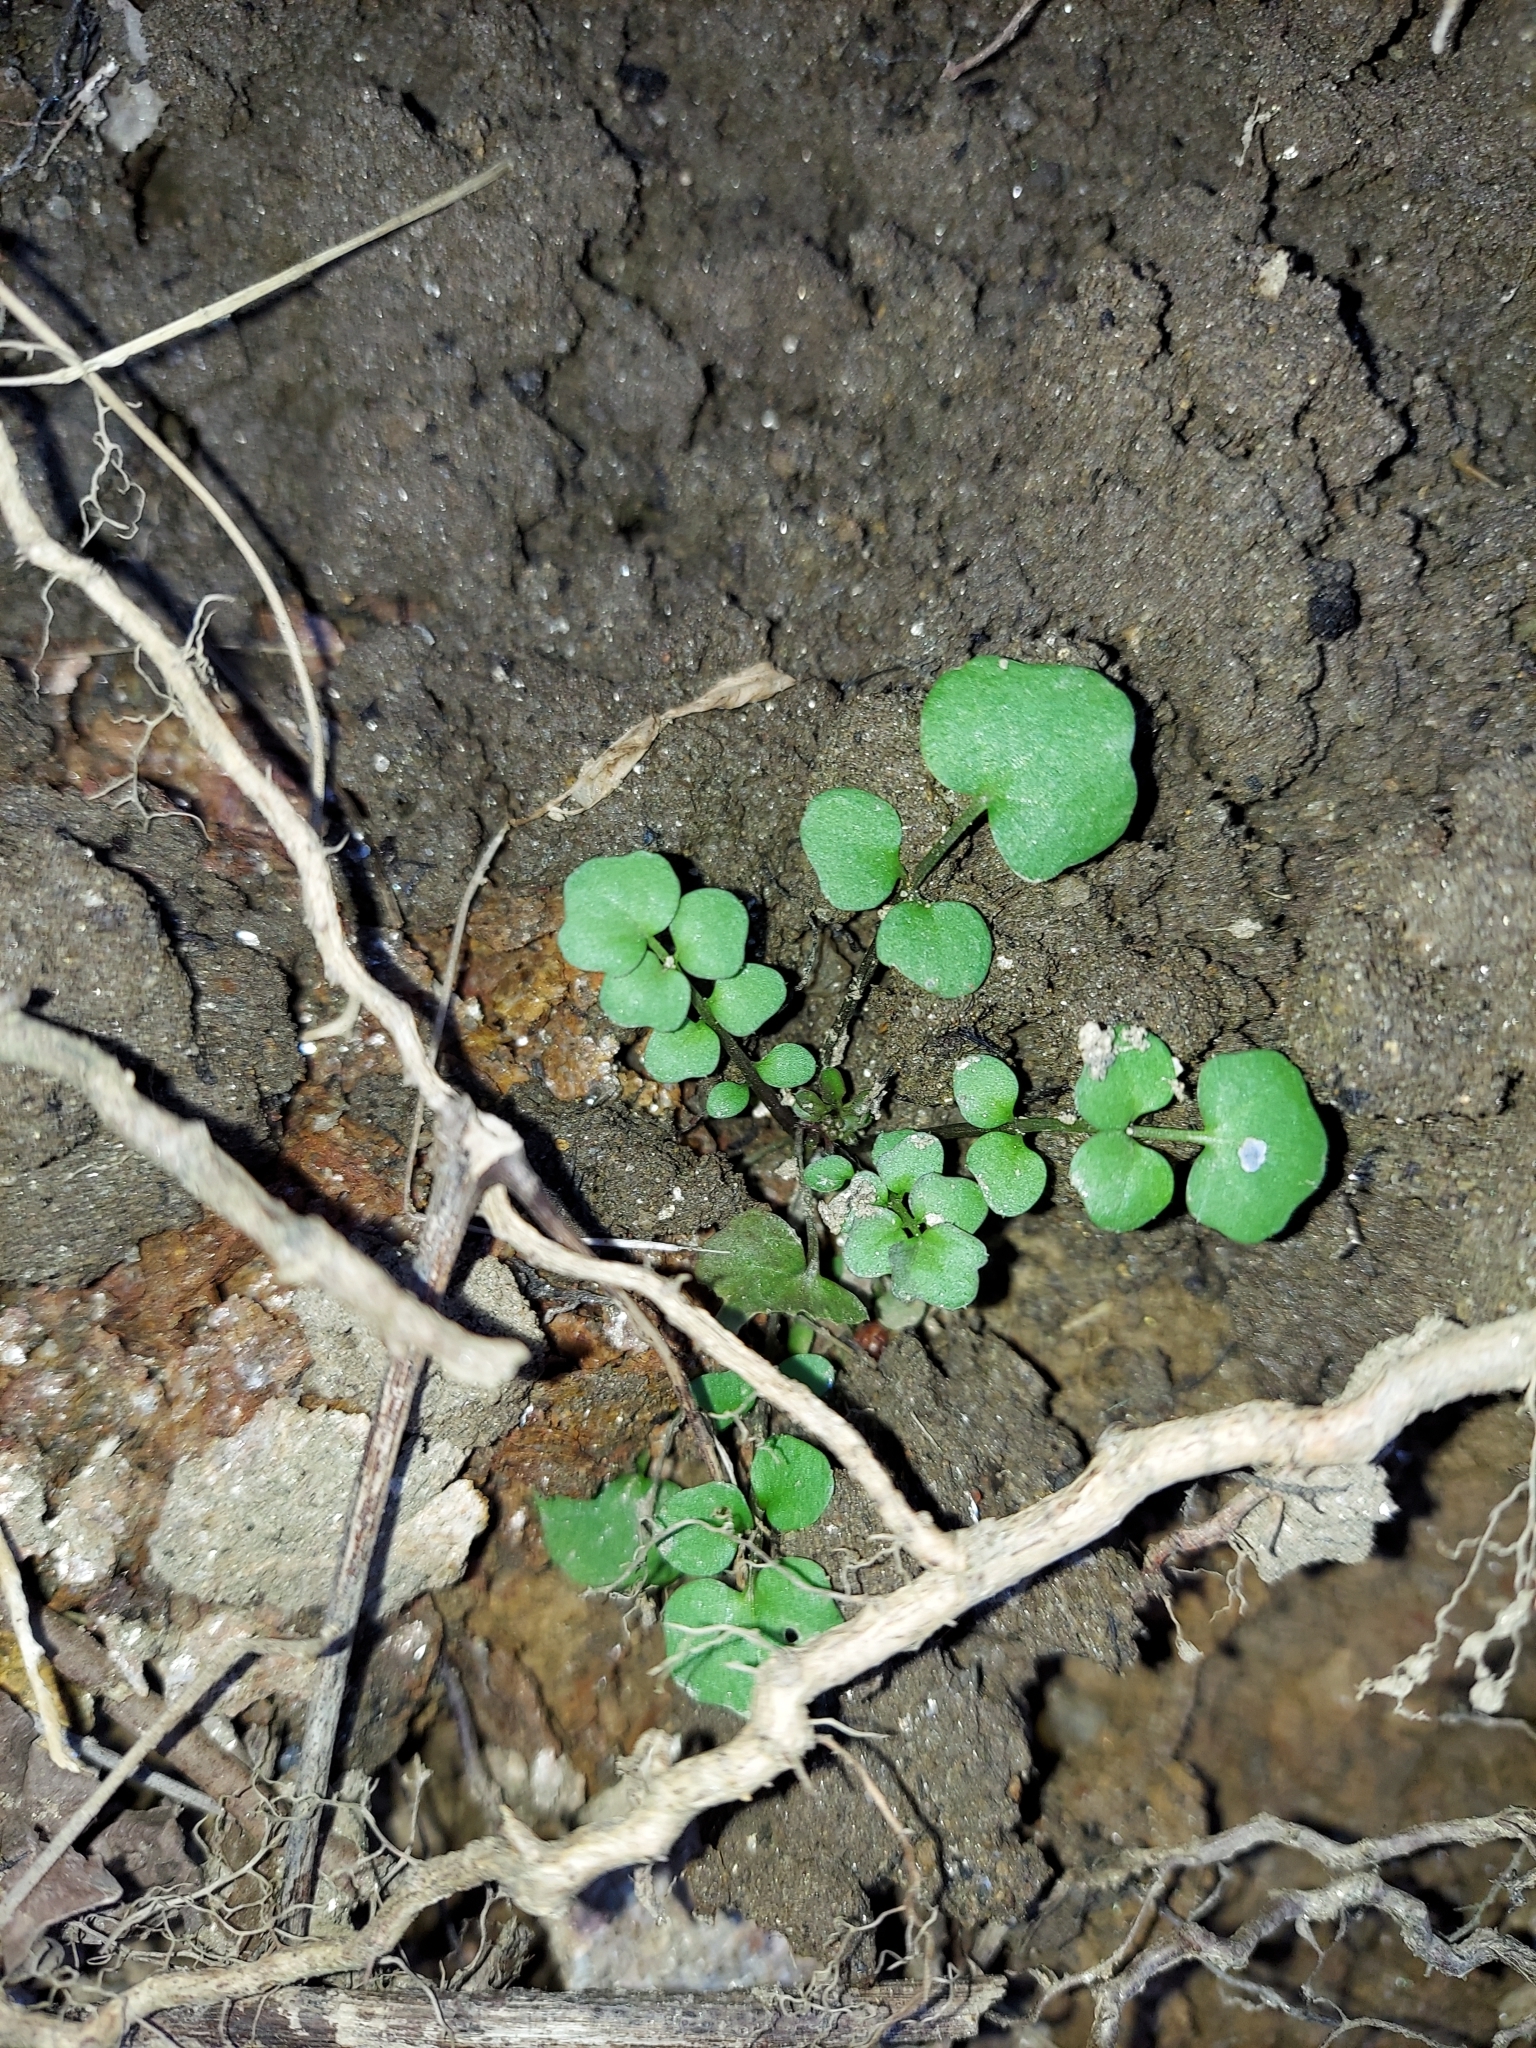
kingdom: Plantae
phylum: Tracheophyta
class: Magnoliopsida
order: Brassicales
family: Brassicaceae
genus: Cardamine
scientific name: Cardamine hirsuta
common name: Hairy bittercress
